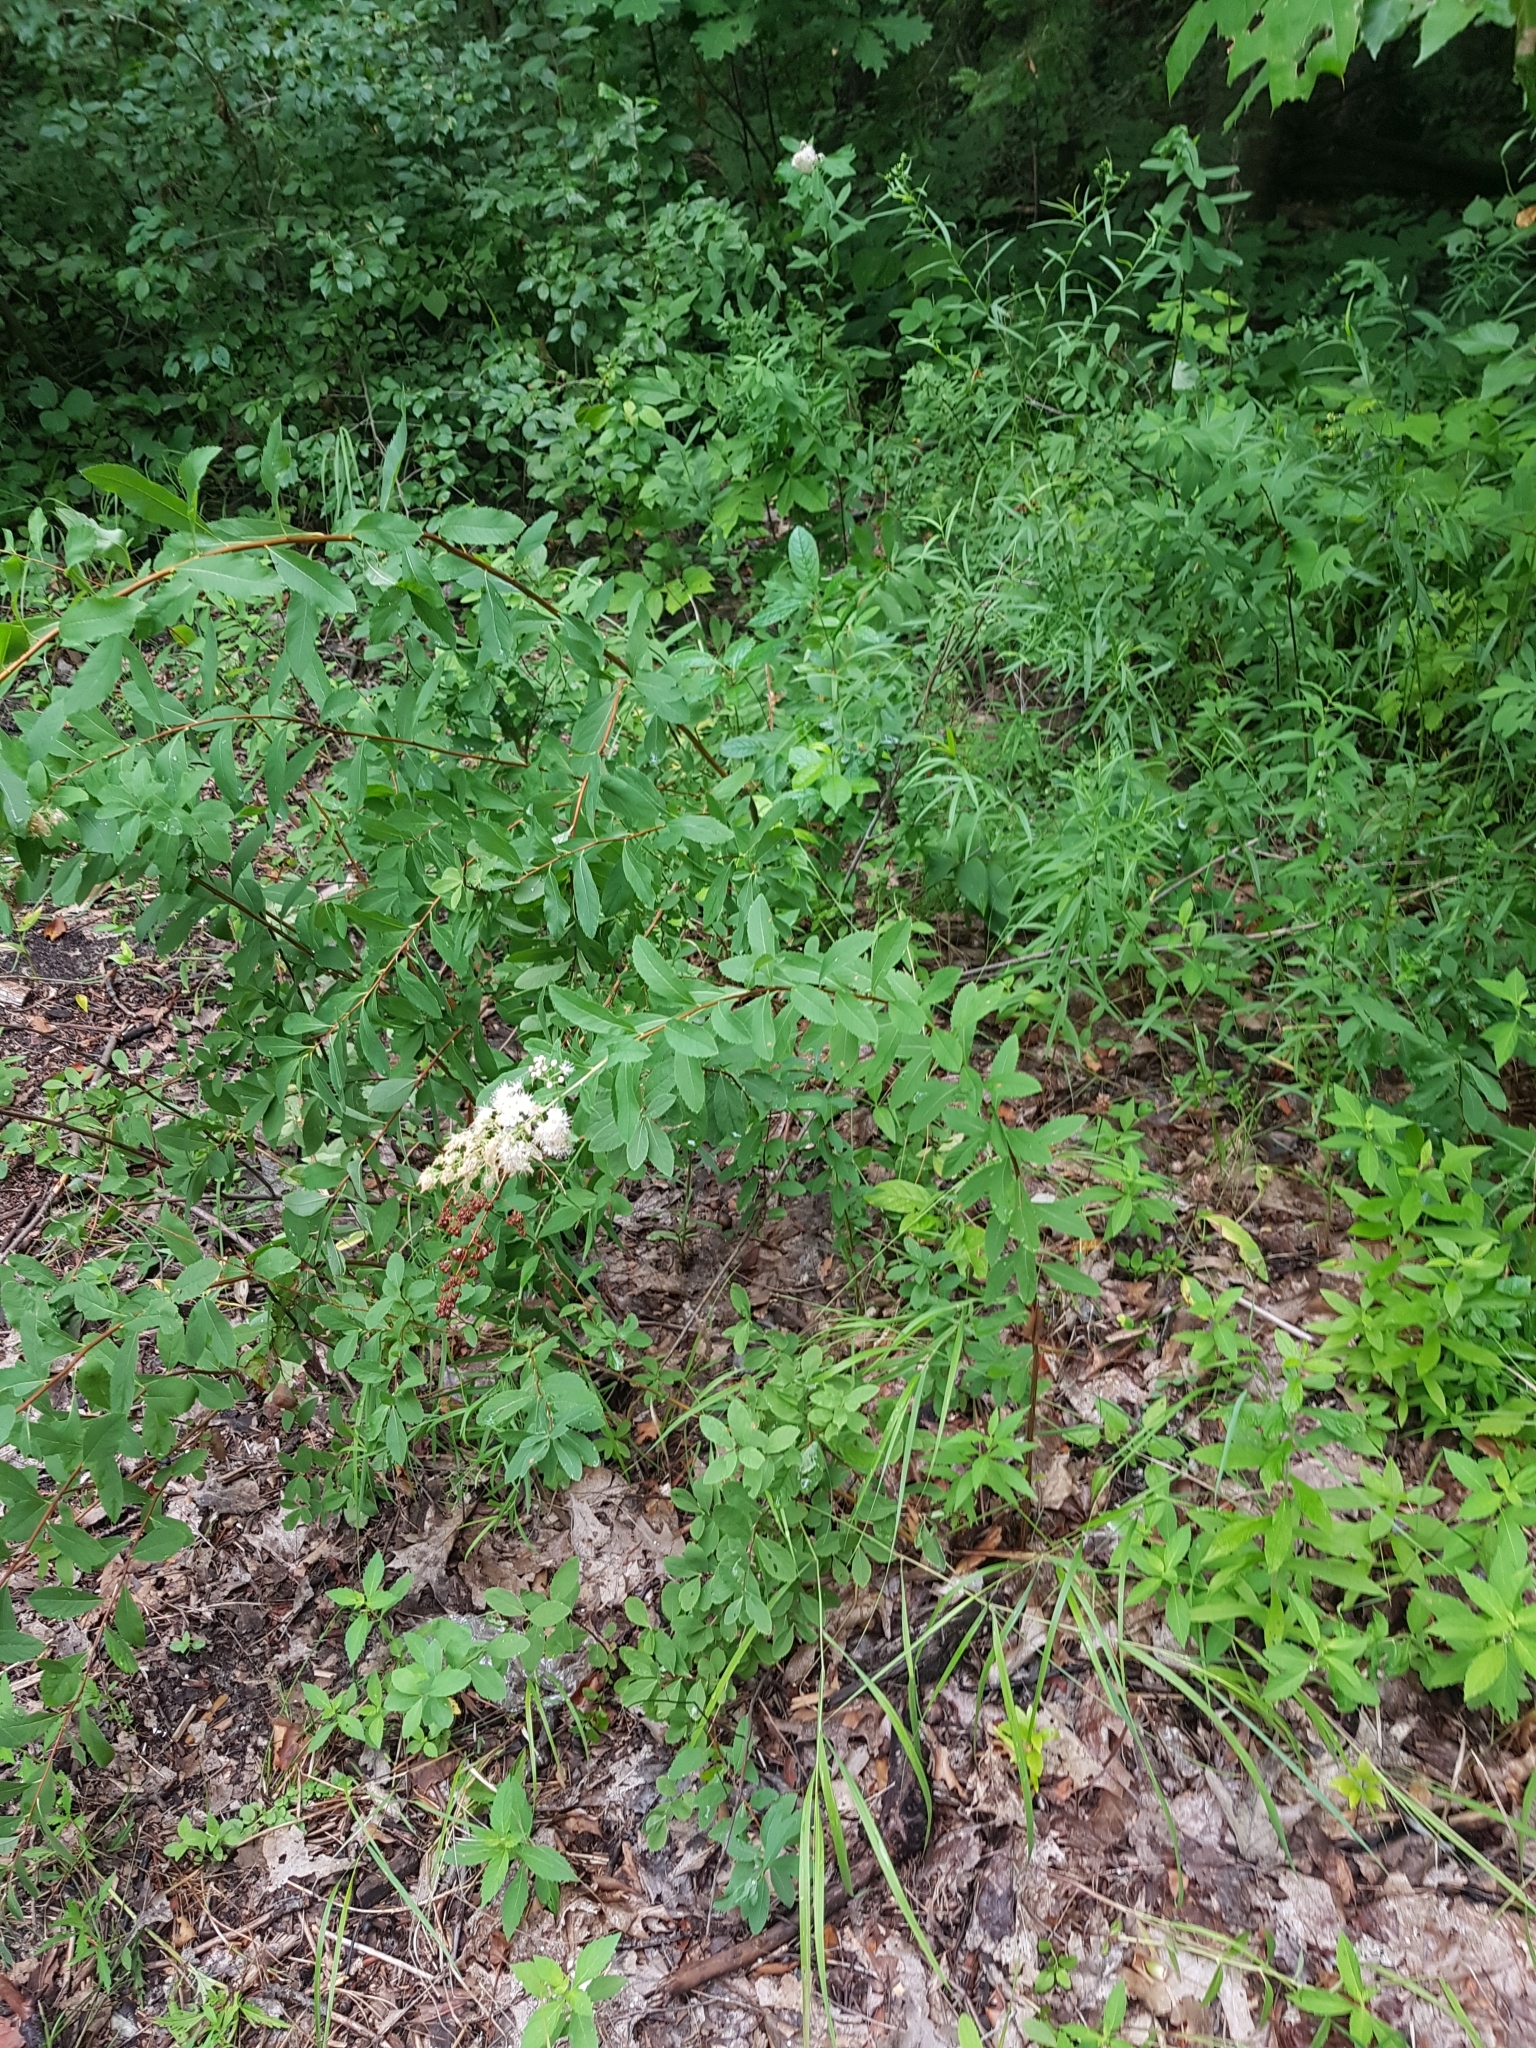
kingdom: Plantae
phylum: Tracheophyta
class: Magnoliopsida
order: Rosales
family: Rosaceae
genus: Spiraea
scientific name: Spiraea alba
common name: Pale bridewort
